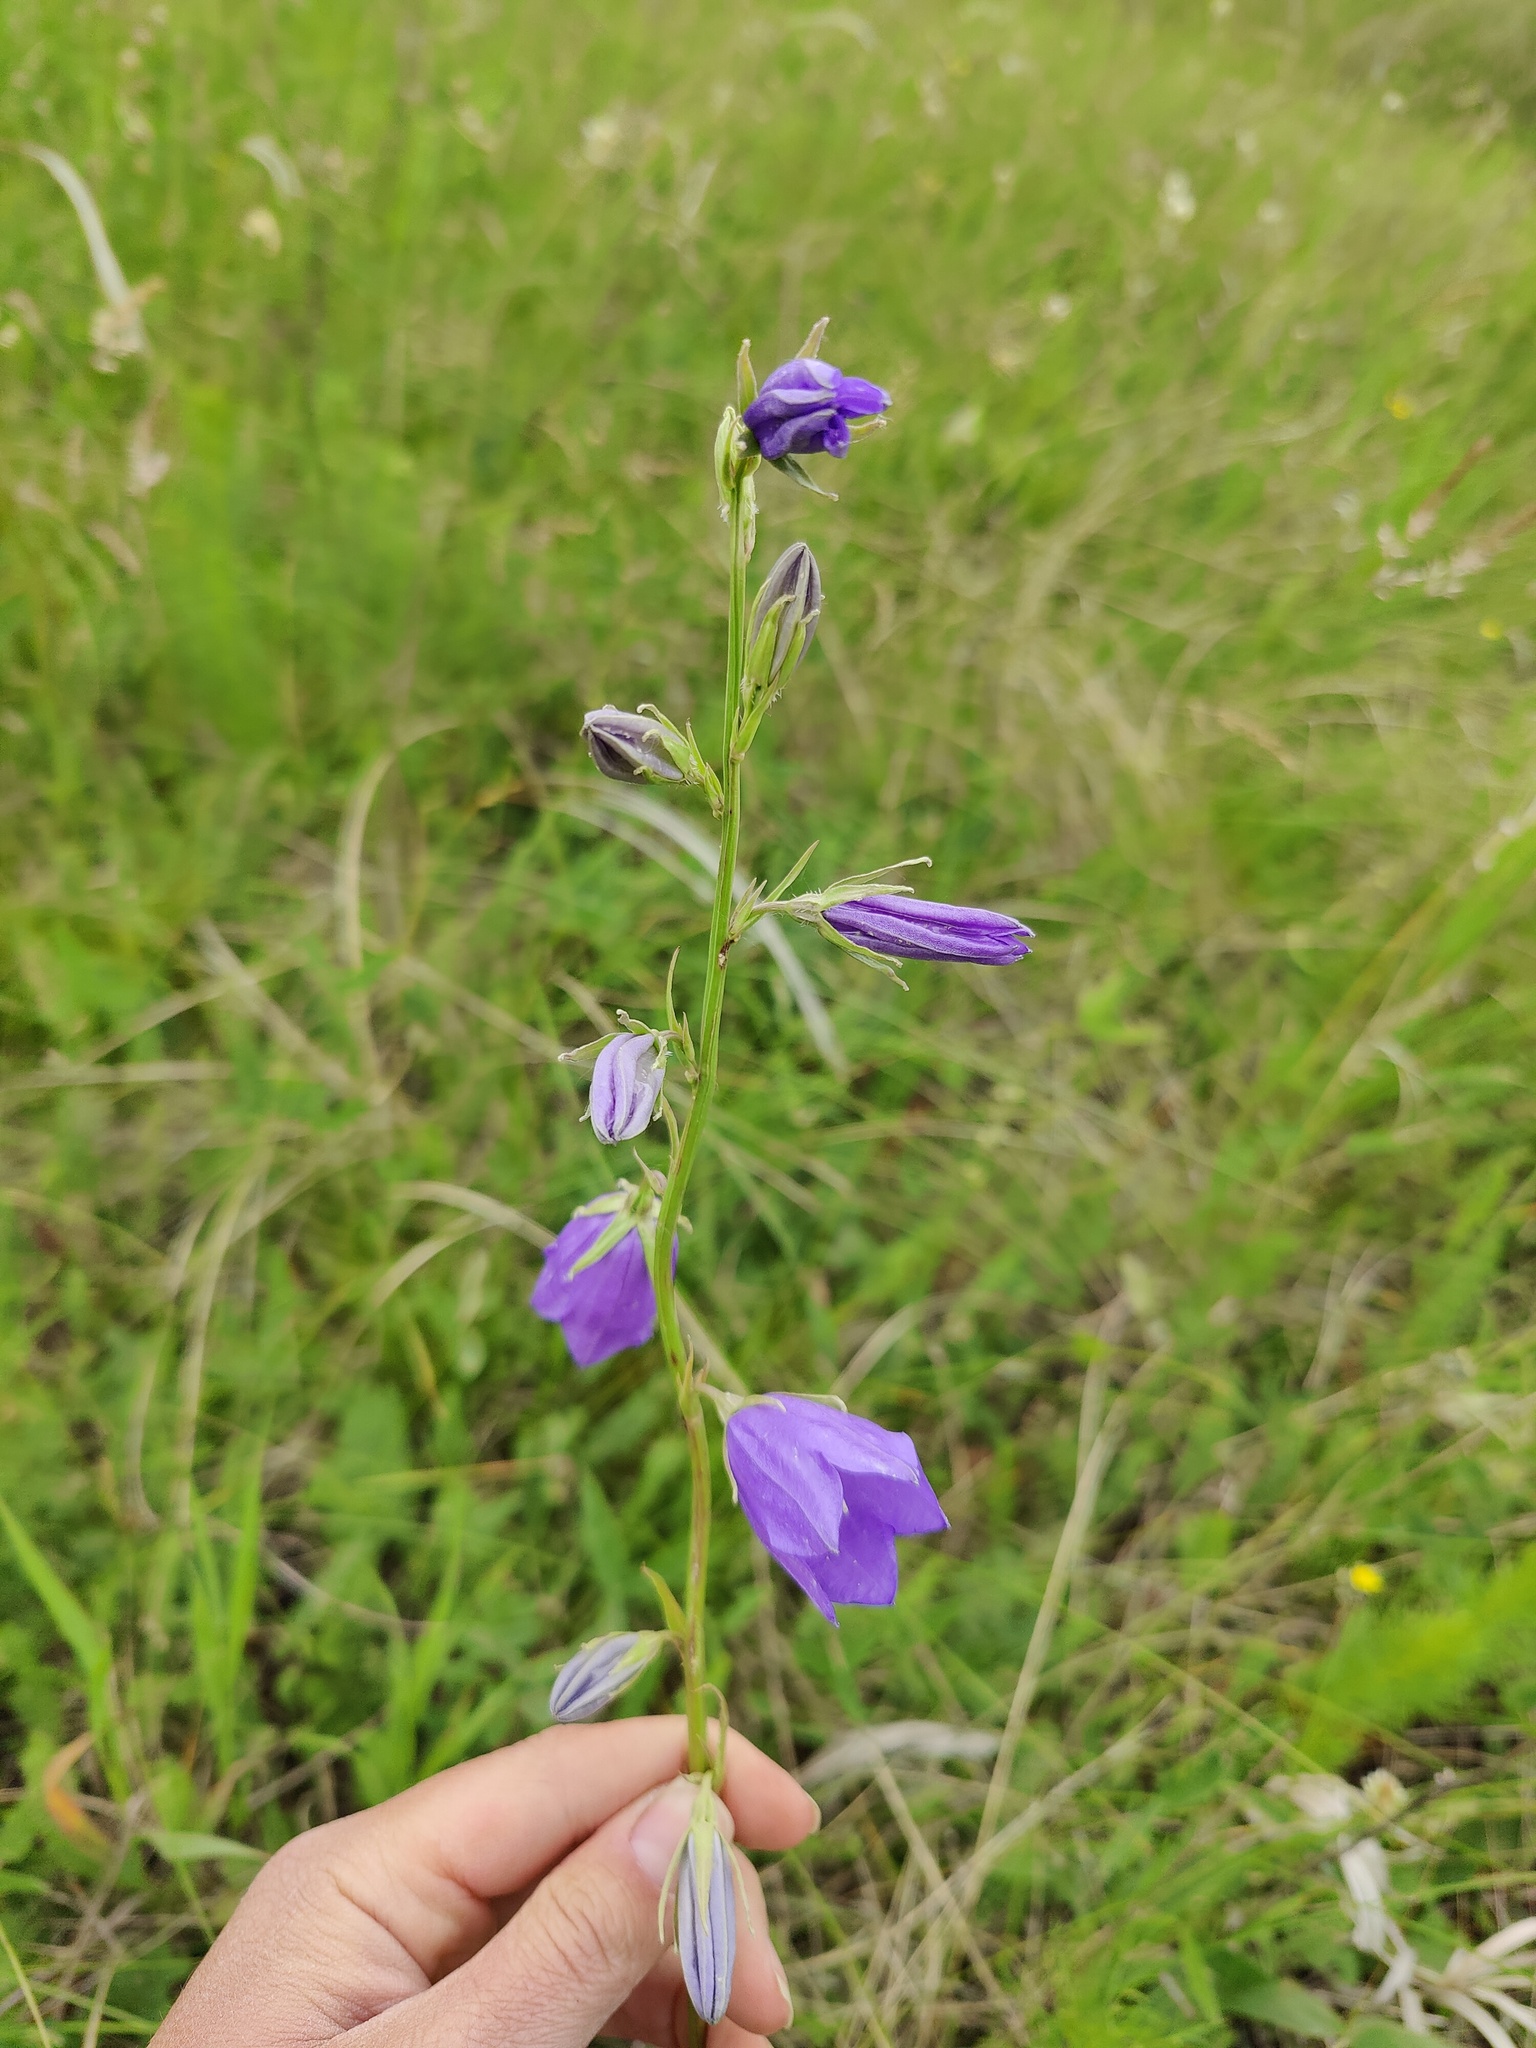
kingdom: Plantae
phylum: Tracheophyta
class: Magnoliopsida
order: Asterales
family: Campanulaceae
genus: Campanula
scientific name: Campanula persicifolia
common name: Peach-leaved bellflower
